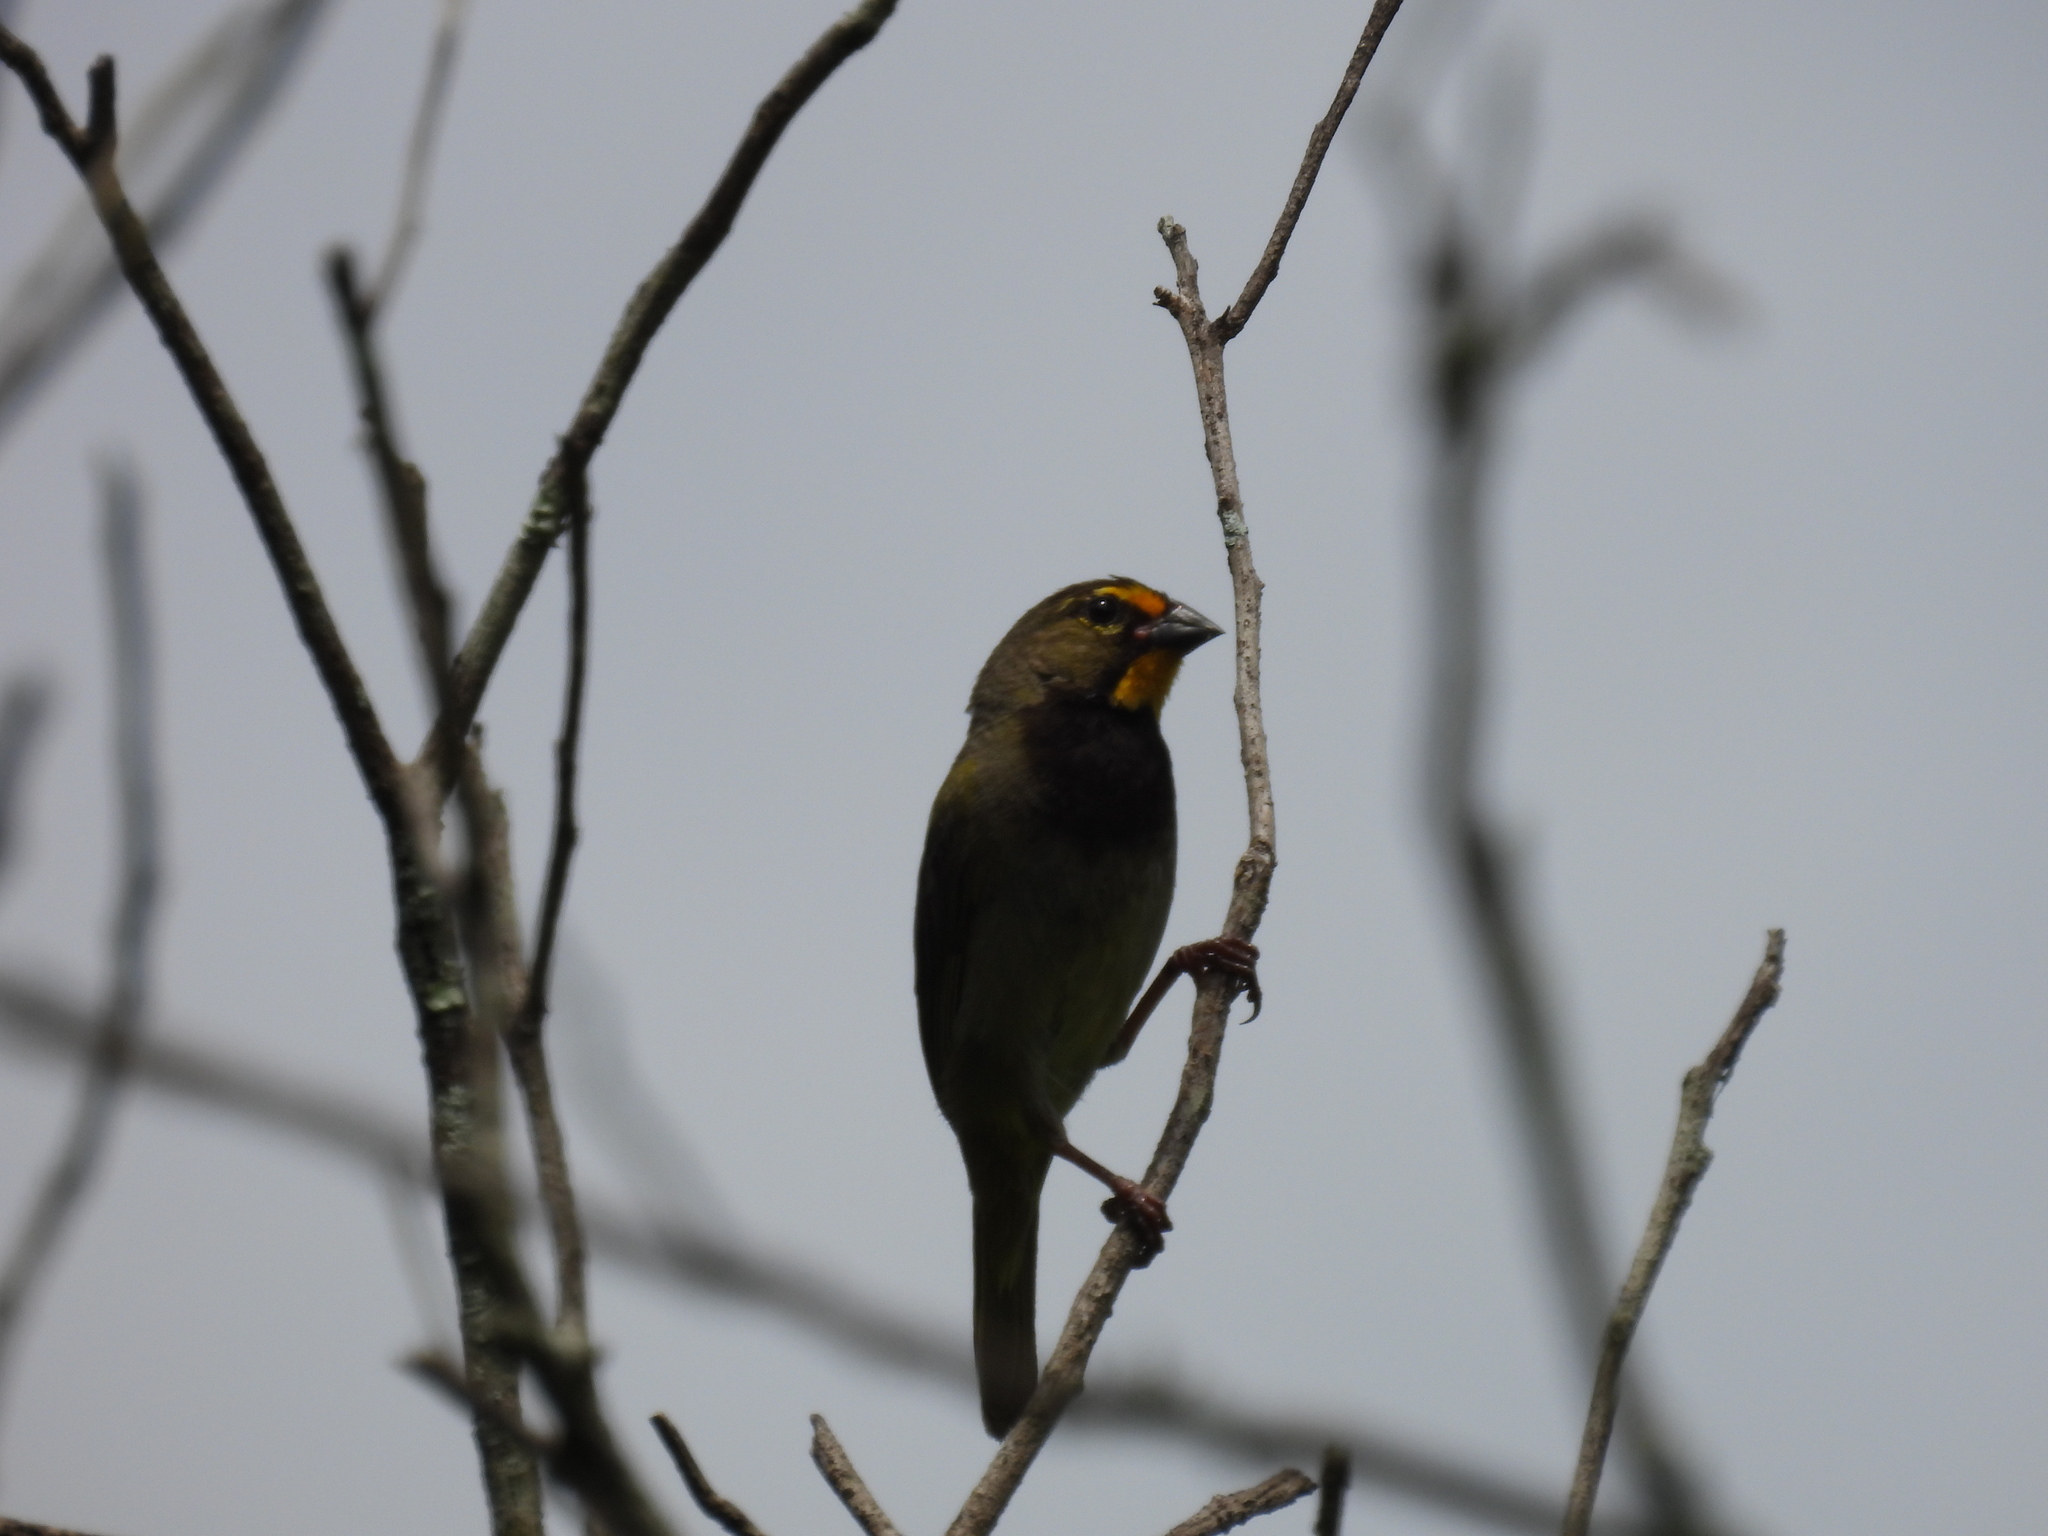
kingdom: Animalia
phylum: Chordata
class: Aves
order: Passeriformes
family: Thraupidae
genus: Tiaris
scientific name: Tiaris olivaceus
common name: Yellow-faced grassquit
